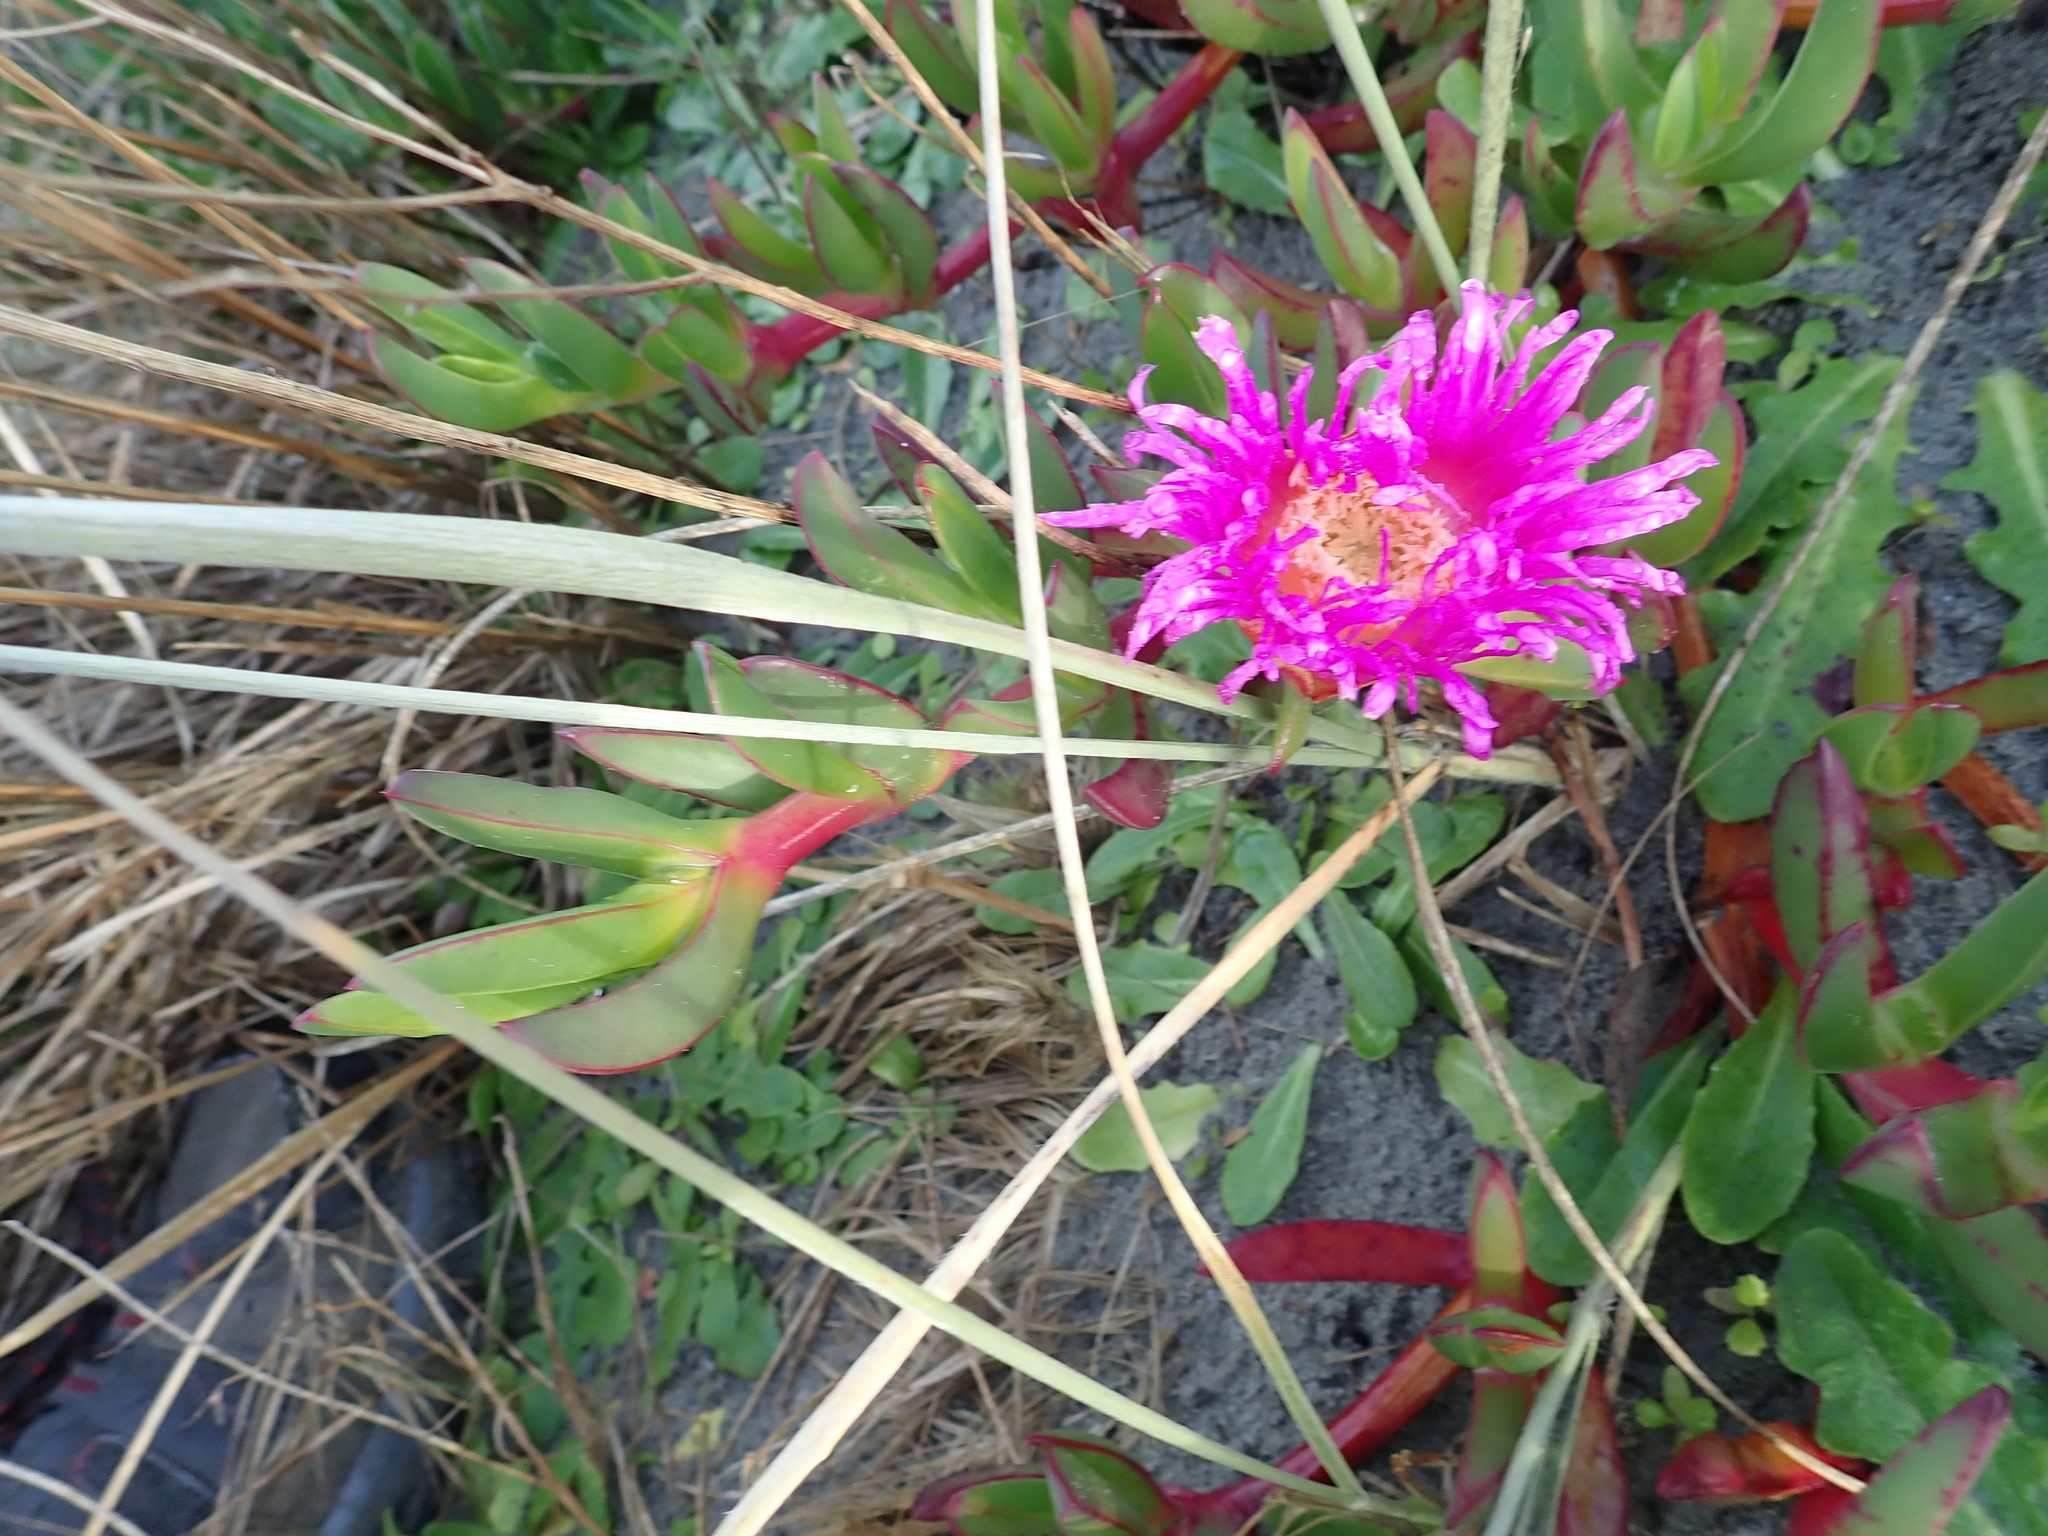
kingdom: Plantae
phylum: Tracheophyta
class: Magnoliopsida
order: Caryophyllales
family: Aizoaceae
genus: Carpobrotus
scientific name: Carpobrotus chilensis
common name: Sea fig
